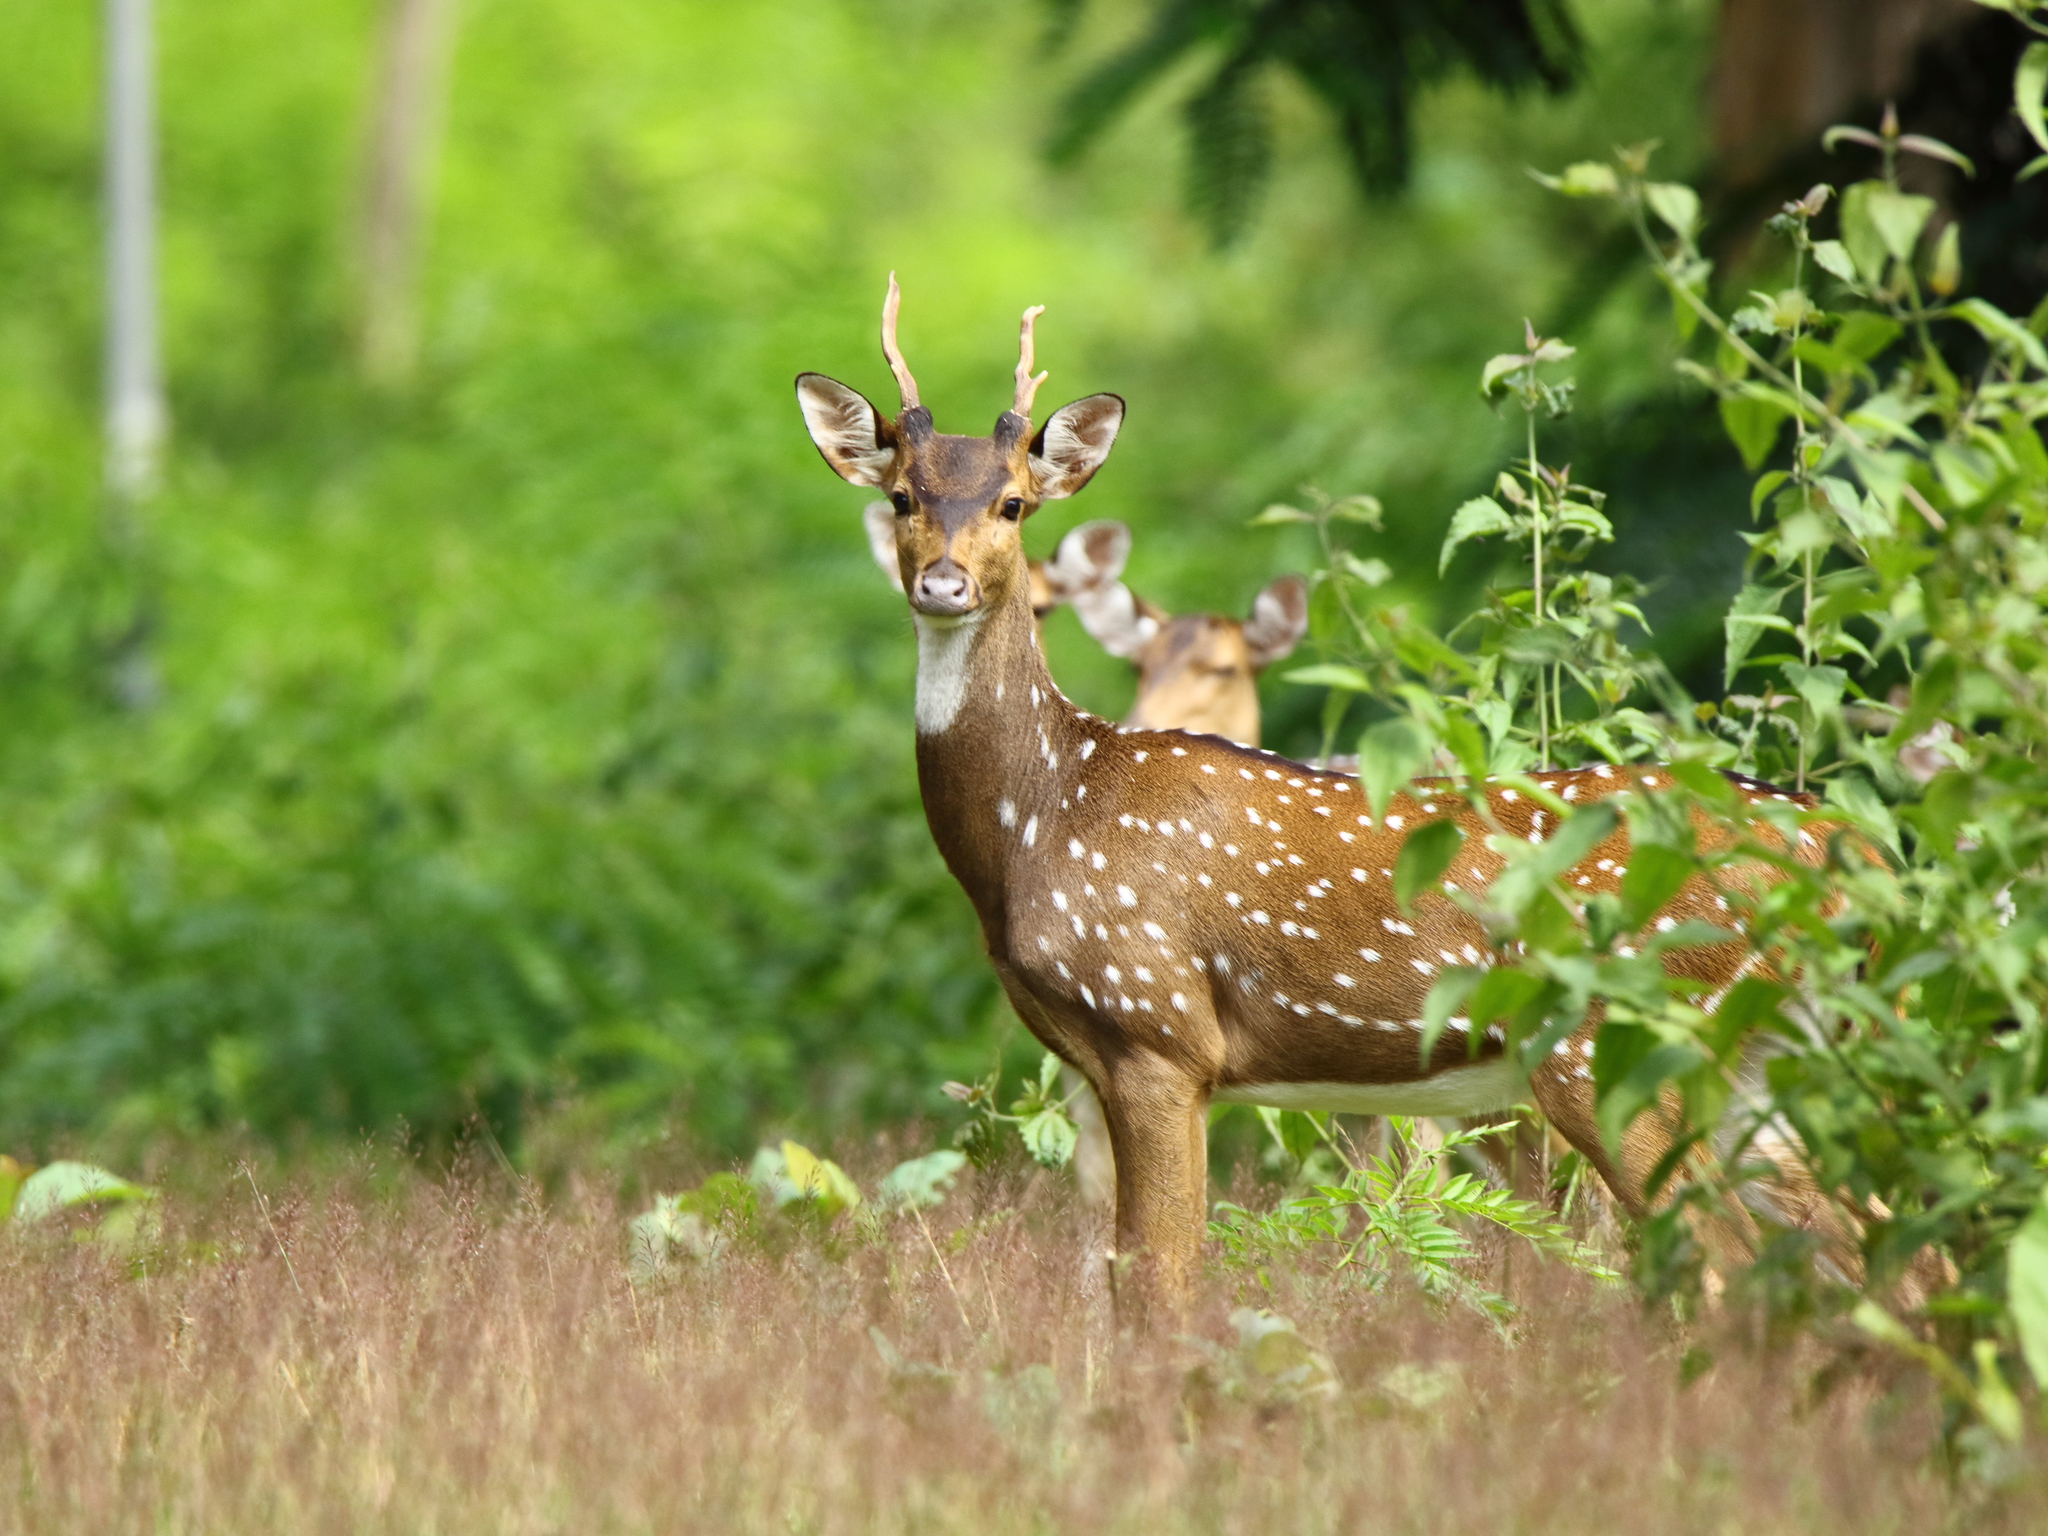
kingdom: Animalia
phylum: Chordata
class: Mammalia
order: Artiodactyla
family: Cervidae
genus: Axis
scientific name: Axis axis
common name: Chital
